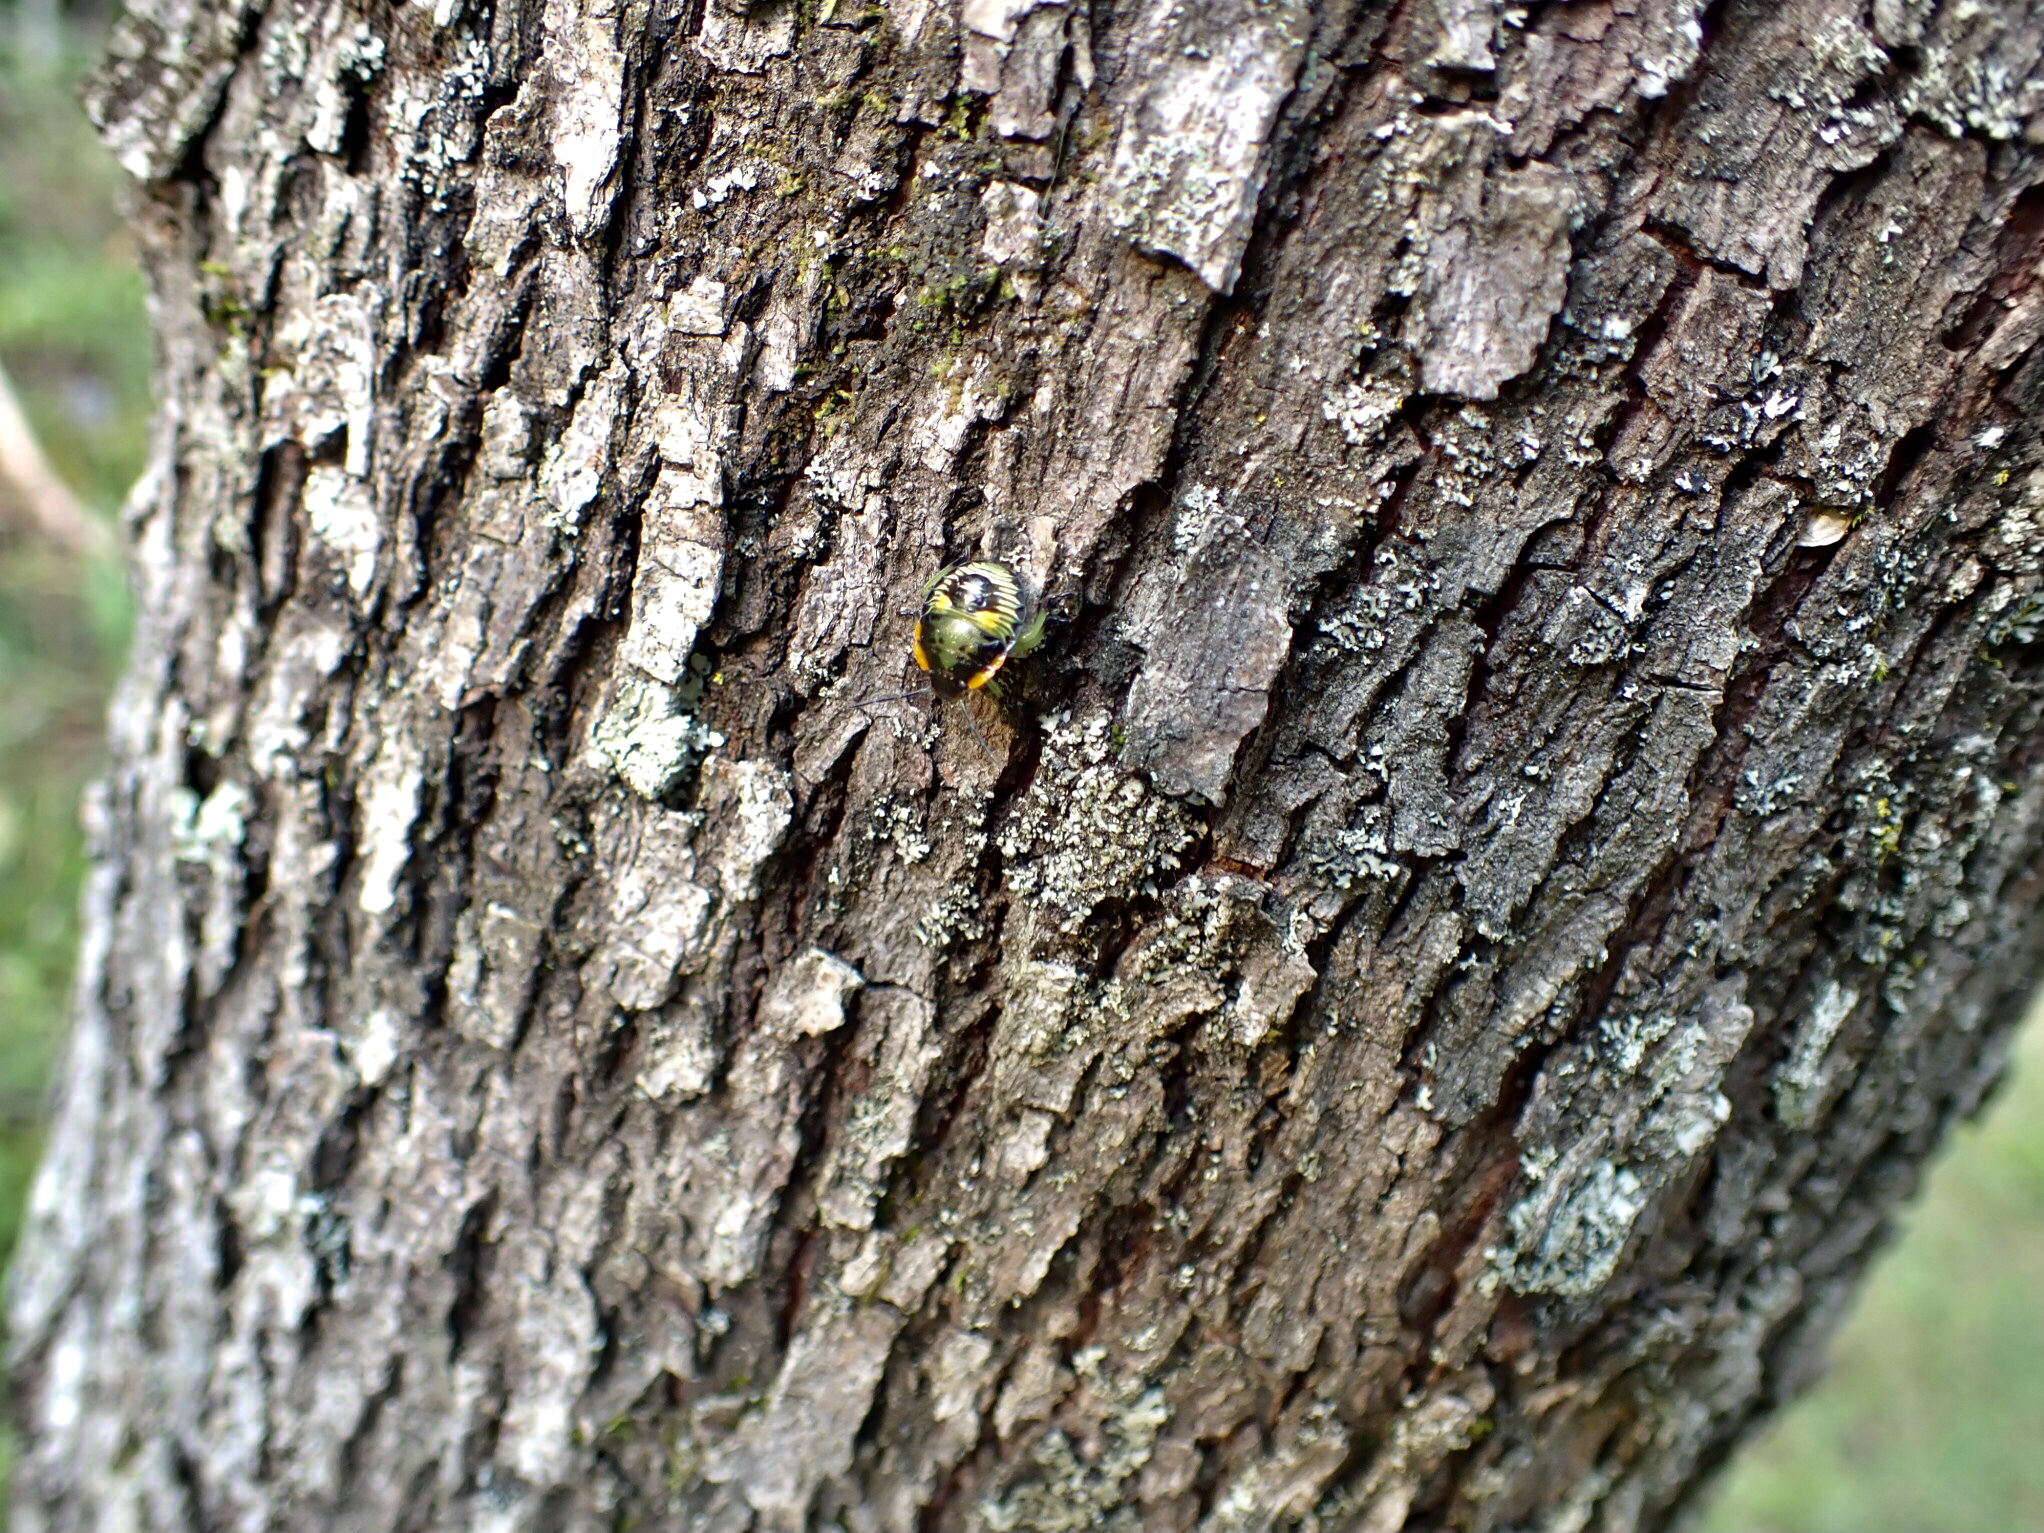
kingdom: Animalia
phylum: Arthropoda
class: Insecta
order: Hemiptera
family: Pentatomidae
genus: Chinavia
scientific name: Chinavia hilaris
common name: Green stink bug
